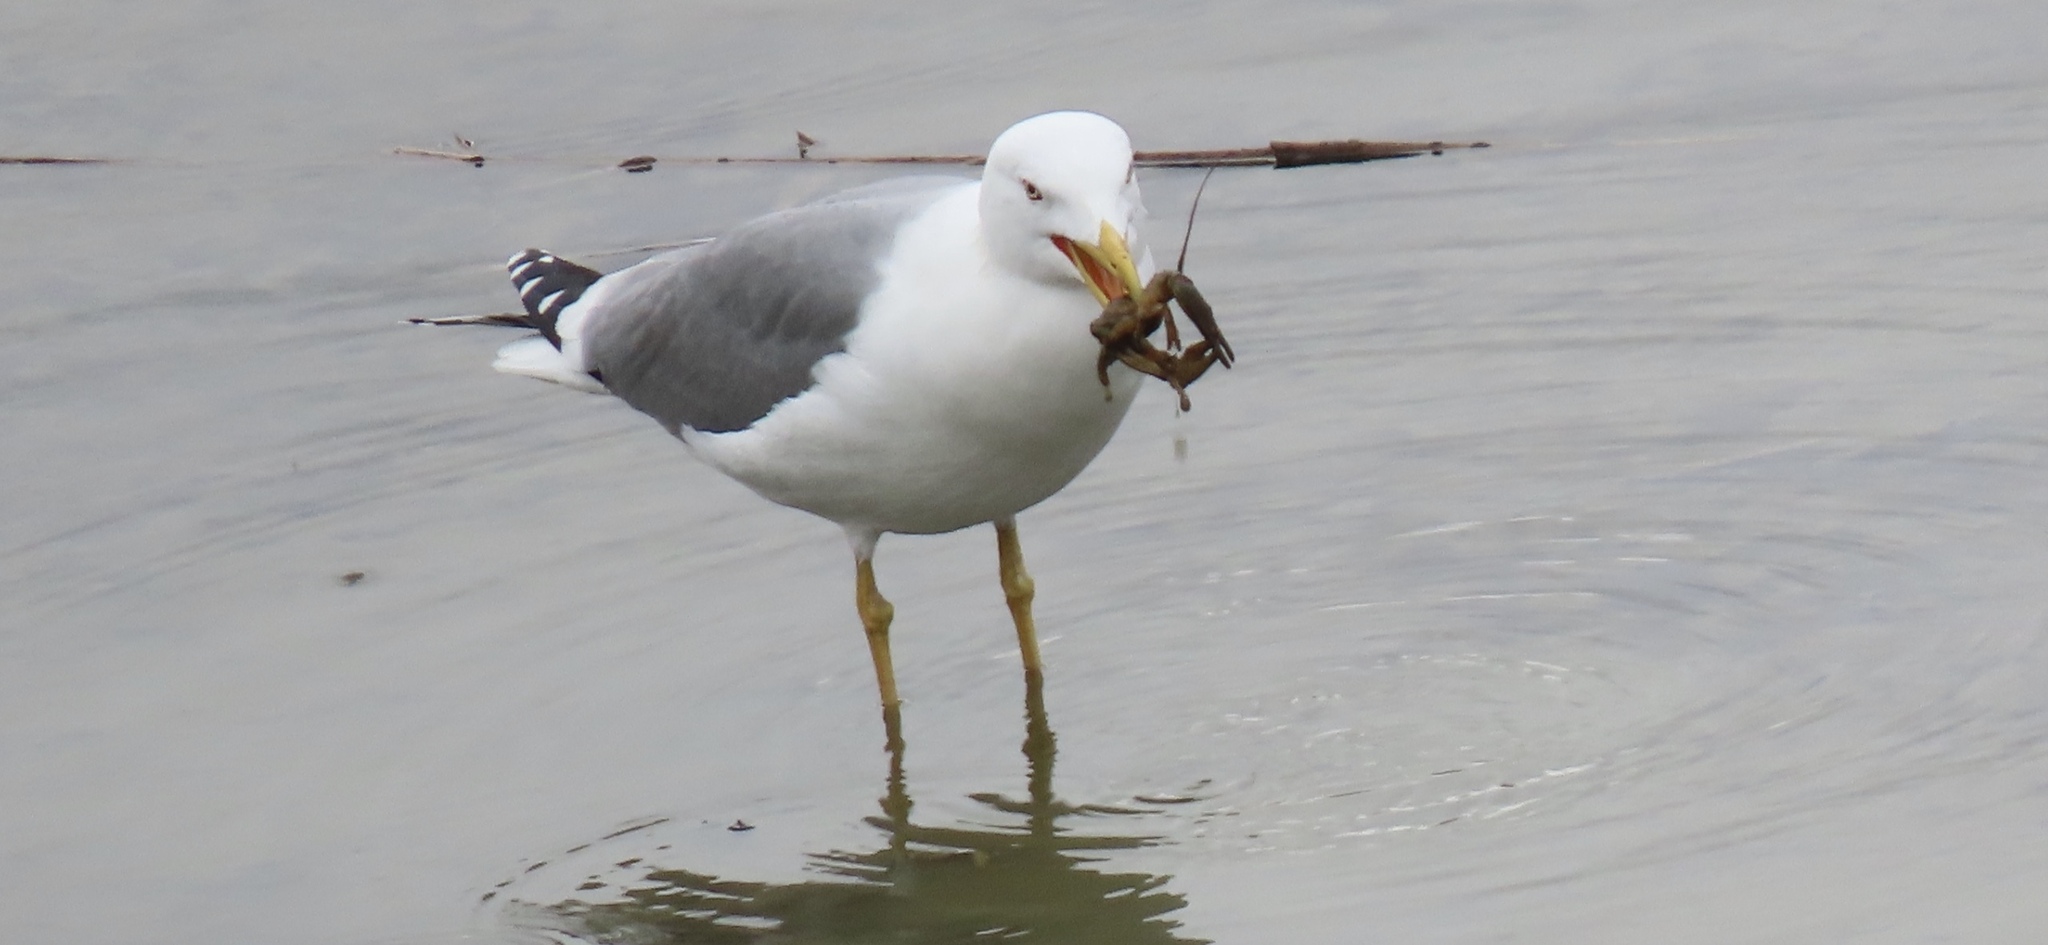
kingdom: Animalia
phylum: Chordata
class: Aves
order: Charadriiformes
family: Laridae
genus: Larus
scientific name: Larus michahellis
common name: Yellow-legged gull
